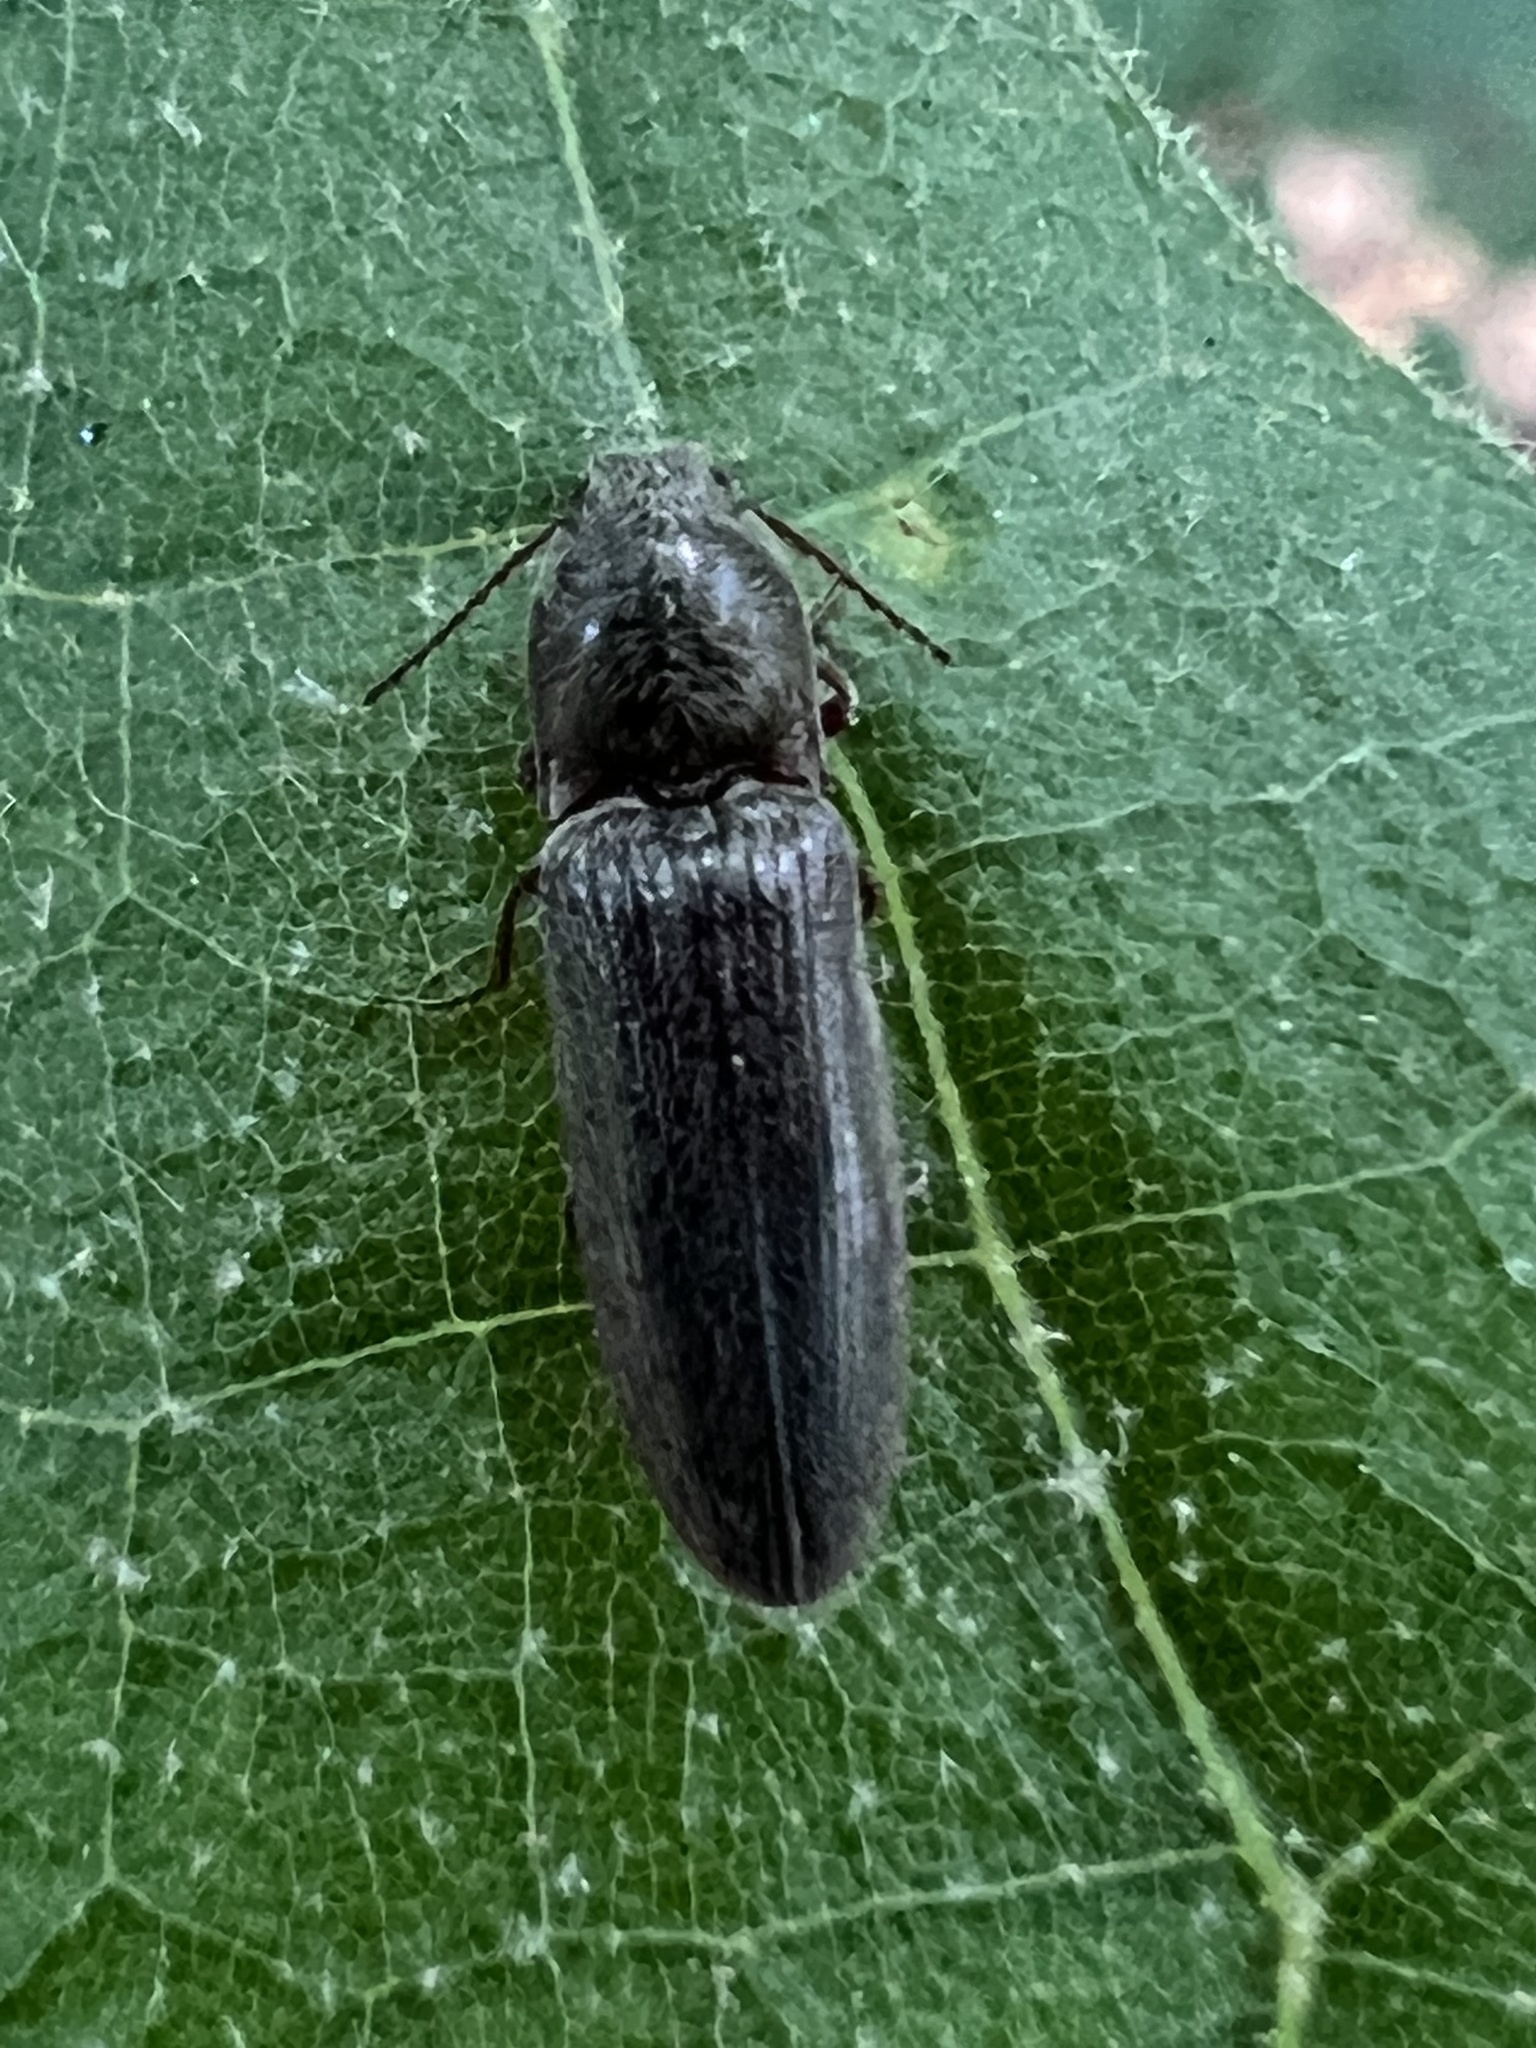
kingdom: Animalia
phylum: Arthropoda
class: Insecta
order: Coleoptera
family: Elateridae
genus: Limonius
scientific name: Limonius quercinus
